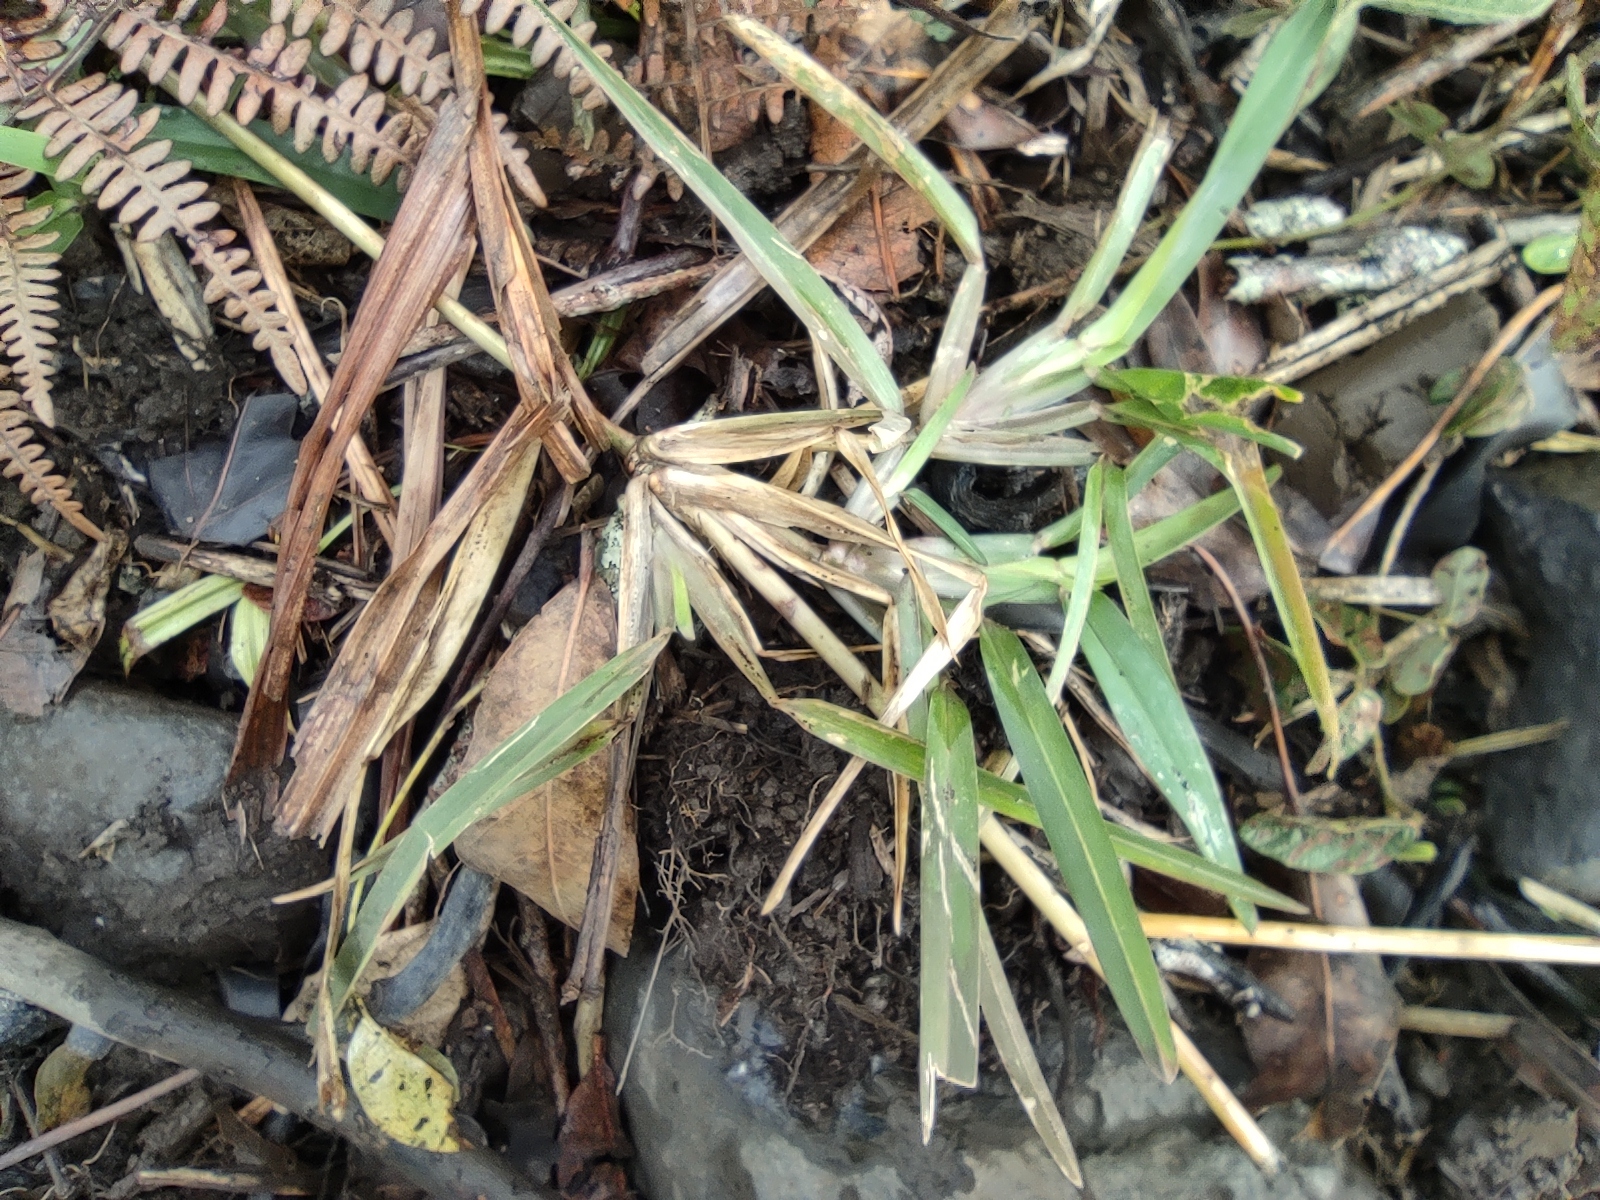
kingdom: Plantae
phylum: Tracheophyta
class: Liliopsida
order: Poales
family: Poaceae
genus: Stenotaphrum
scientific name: Stenotaphrum dimidiatum
